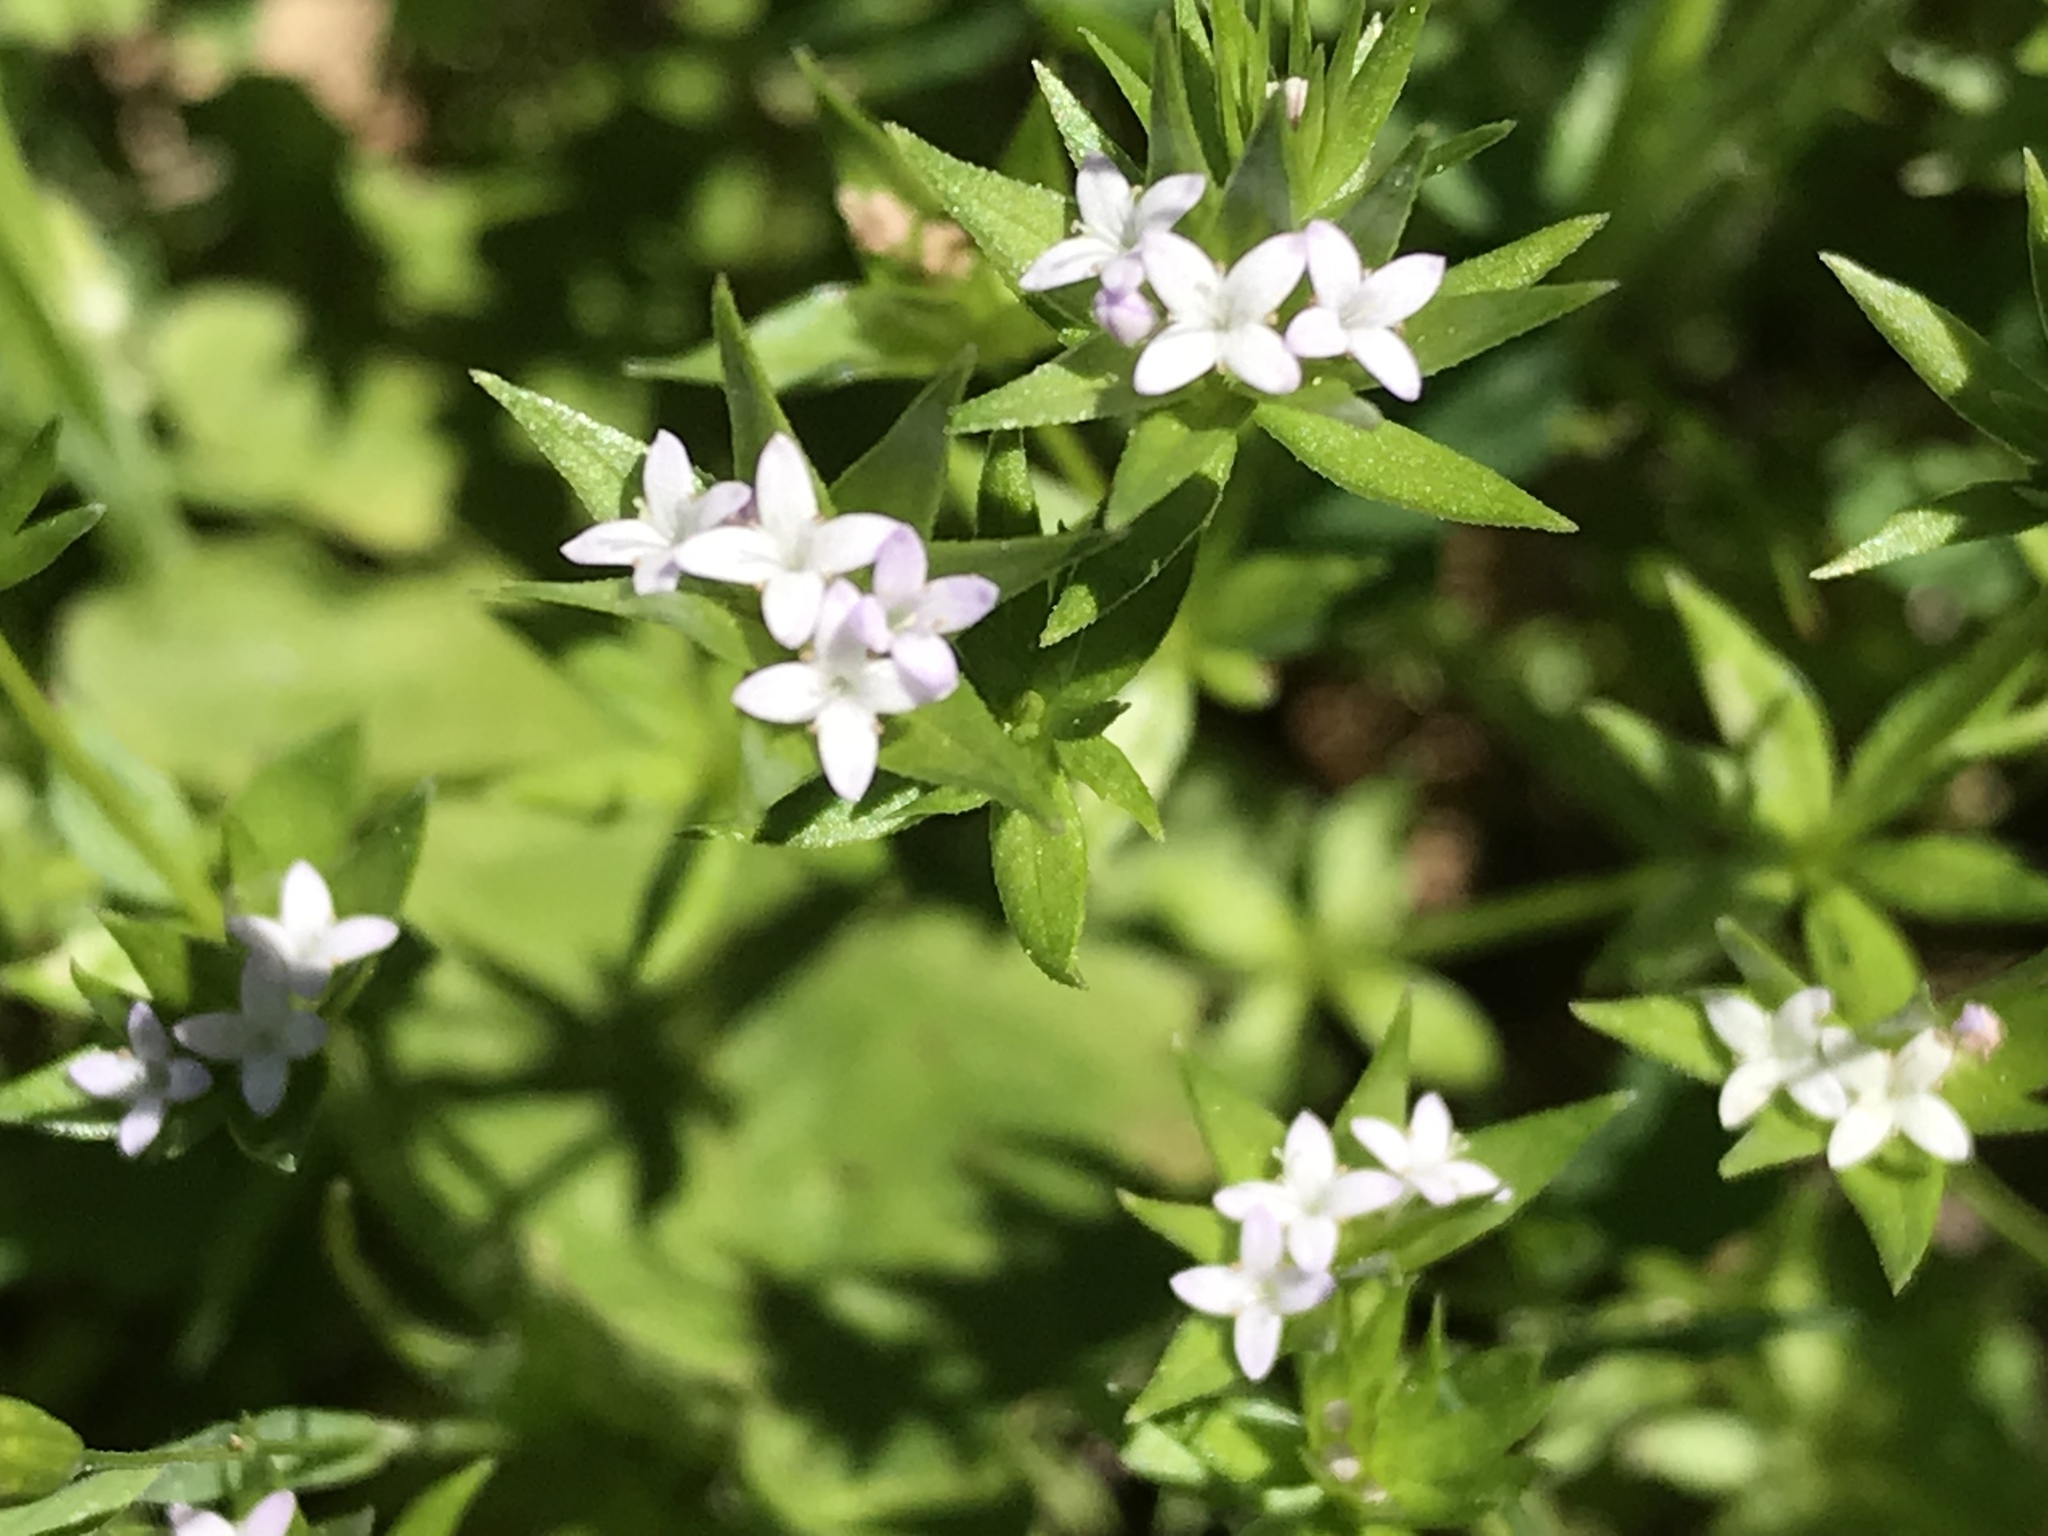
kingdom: Plantae
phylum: Tracheophyta
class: Magnoliopsida
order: Gentianales
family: Rubiaceae
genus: Sherardia
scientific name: Sherardia arvensis
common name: Field madder
